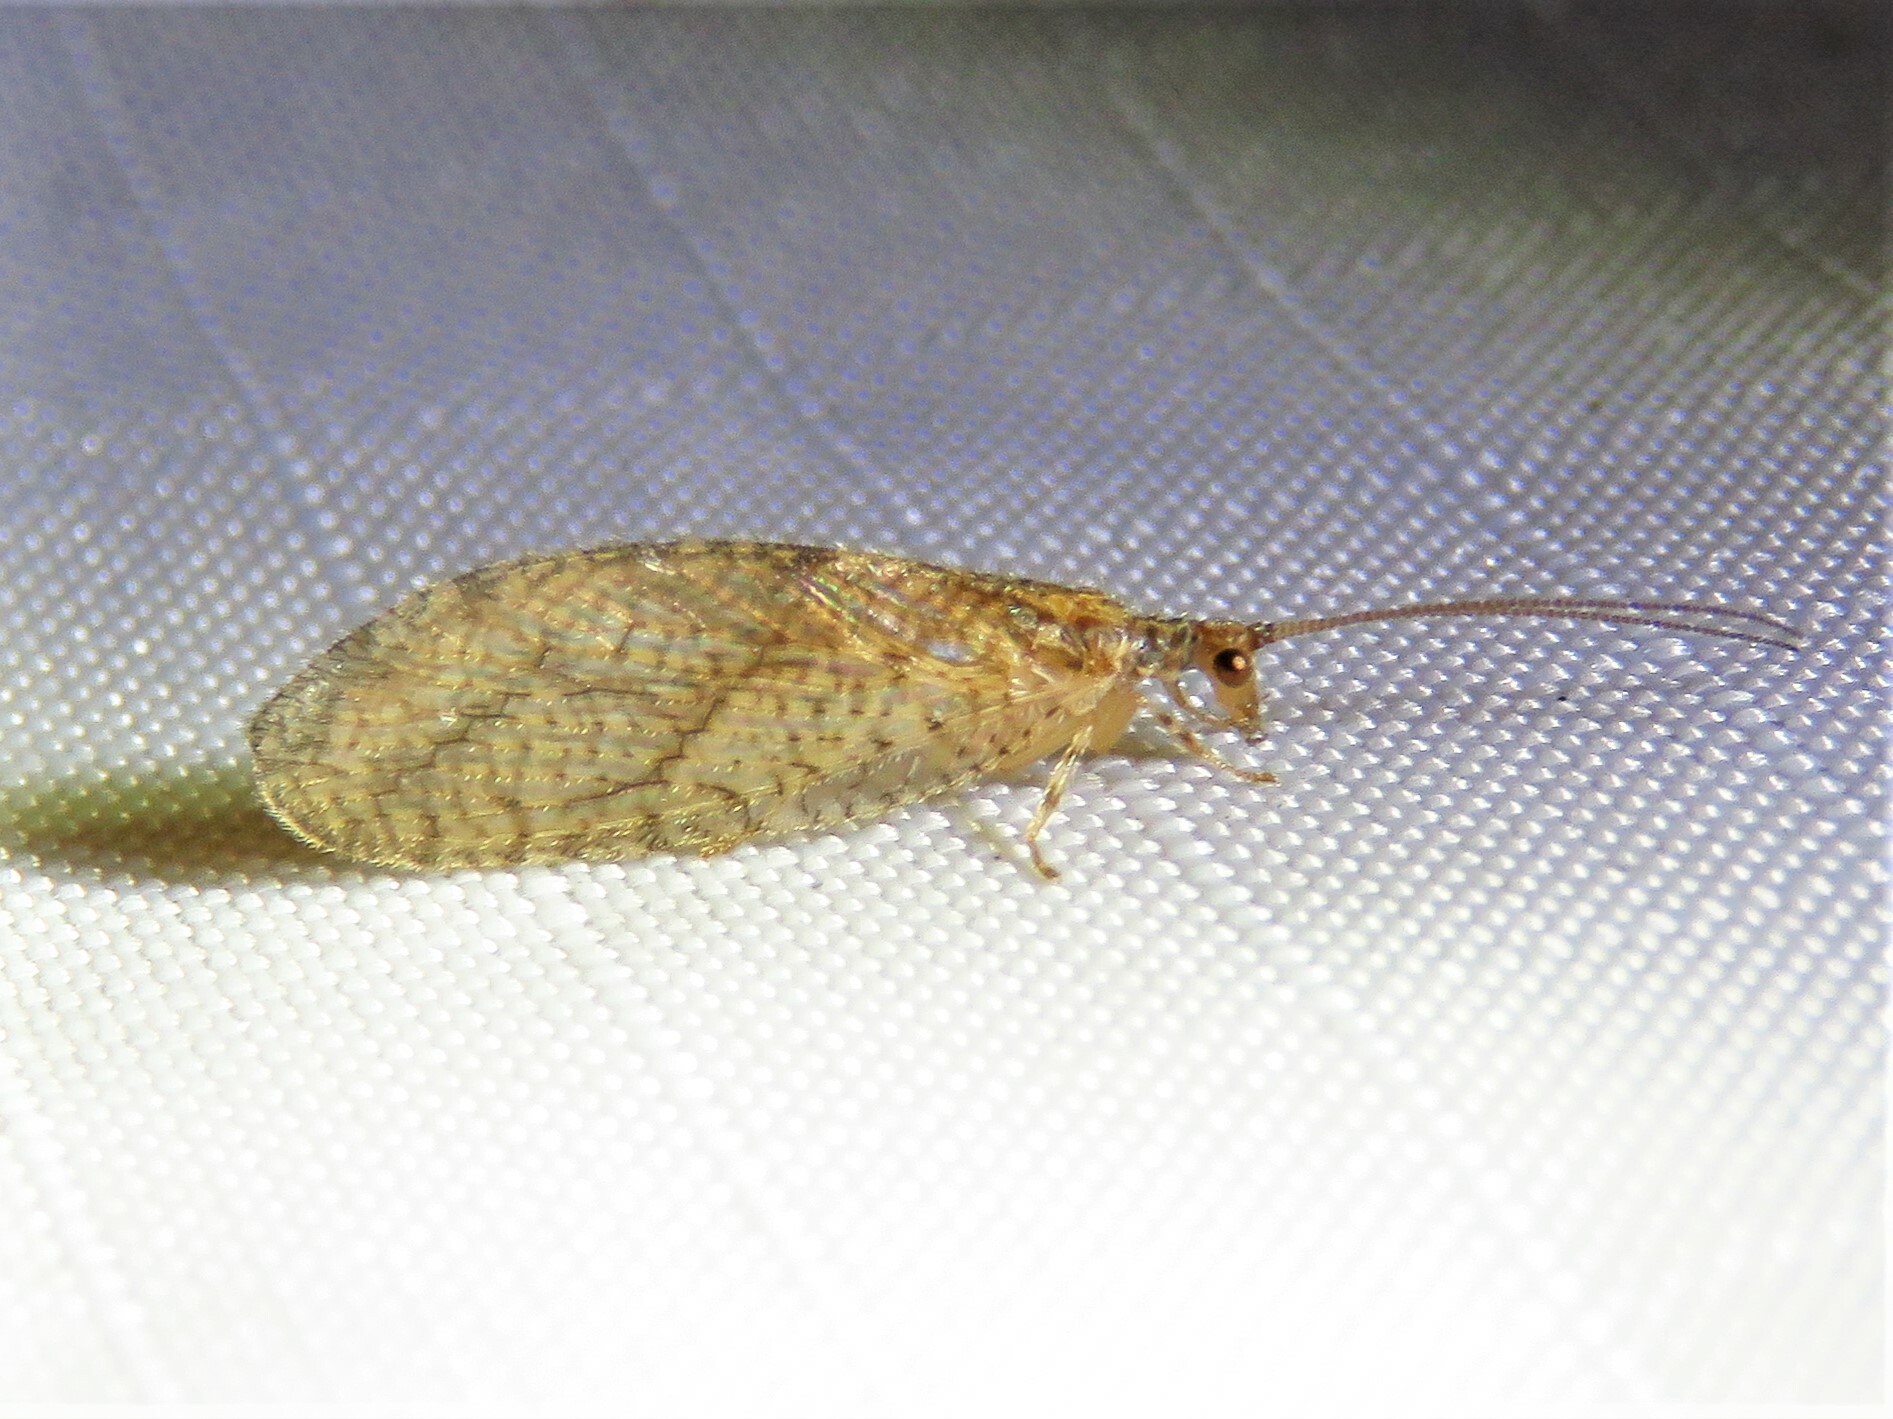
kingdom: Animalia
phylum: Arthropoda
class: Insecta
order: Neuroptera
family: Hemerobiidae
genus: Micromus
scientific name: Micromus posticus
